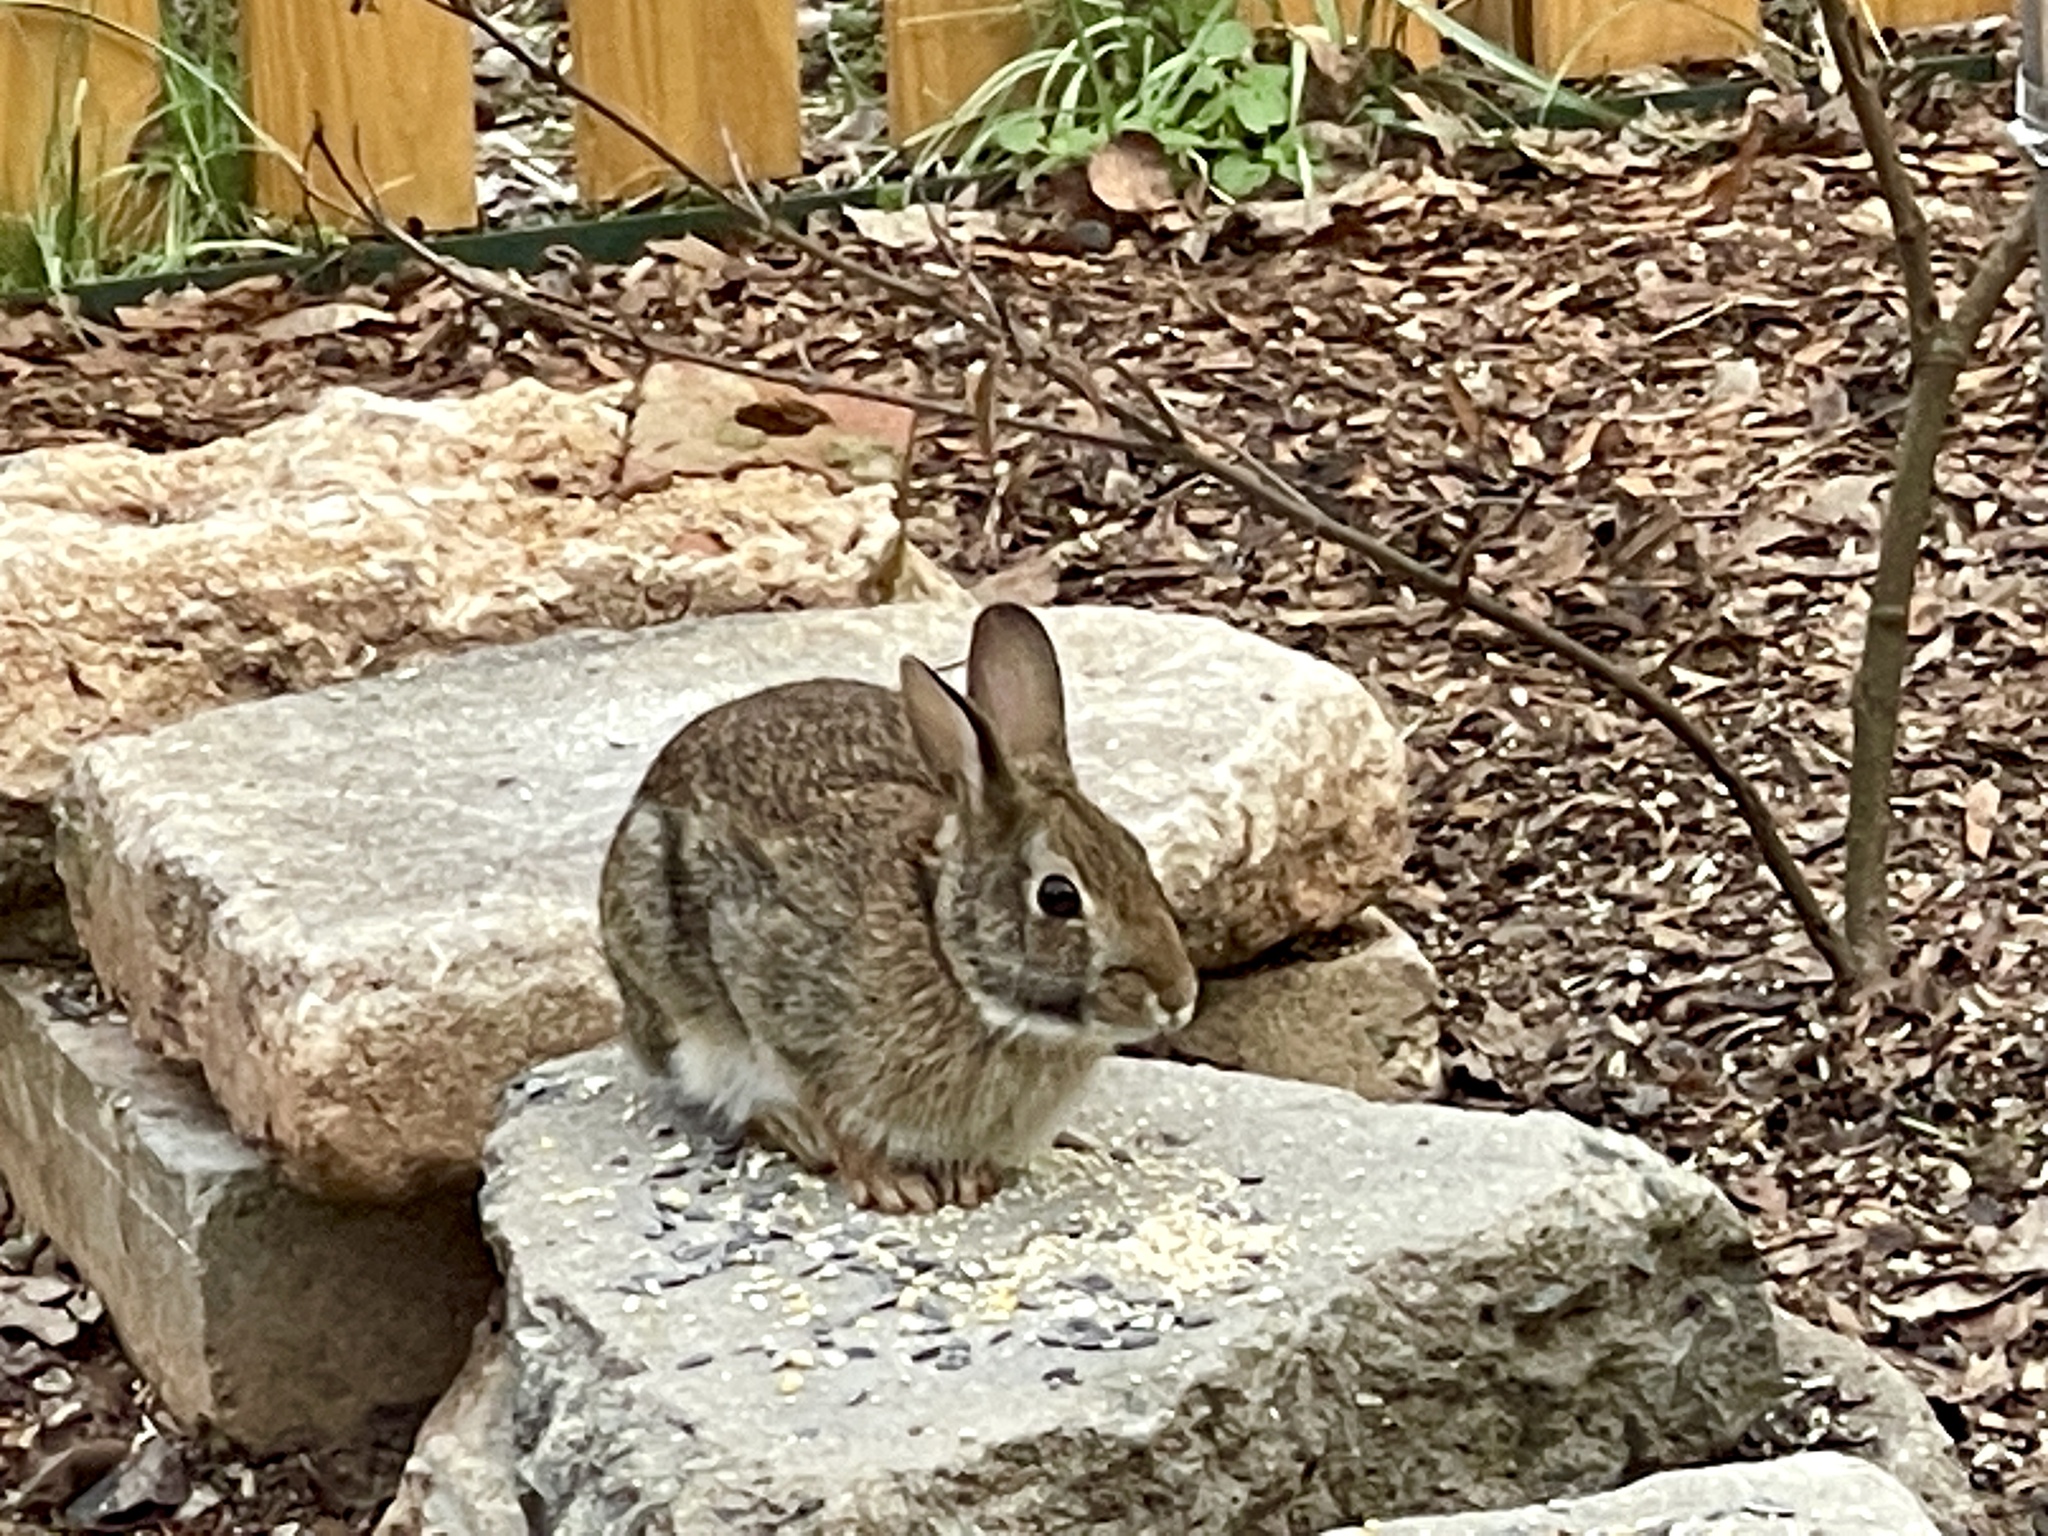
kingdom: Animalia
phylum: Chordata
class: Mammalia
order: Lagomorpha
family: Leporidae
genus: Sylvilagus
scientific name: Sylvilagus floridanus
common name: Eastern cottontail
